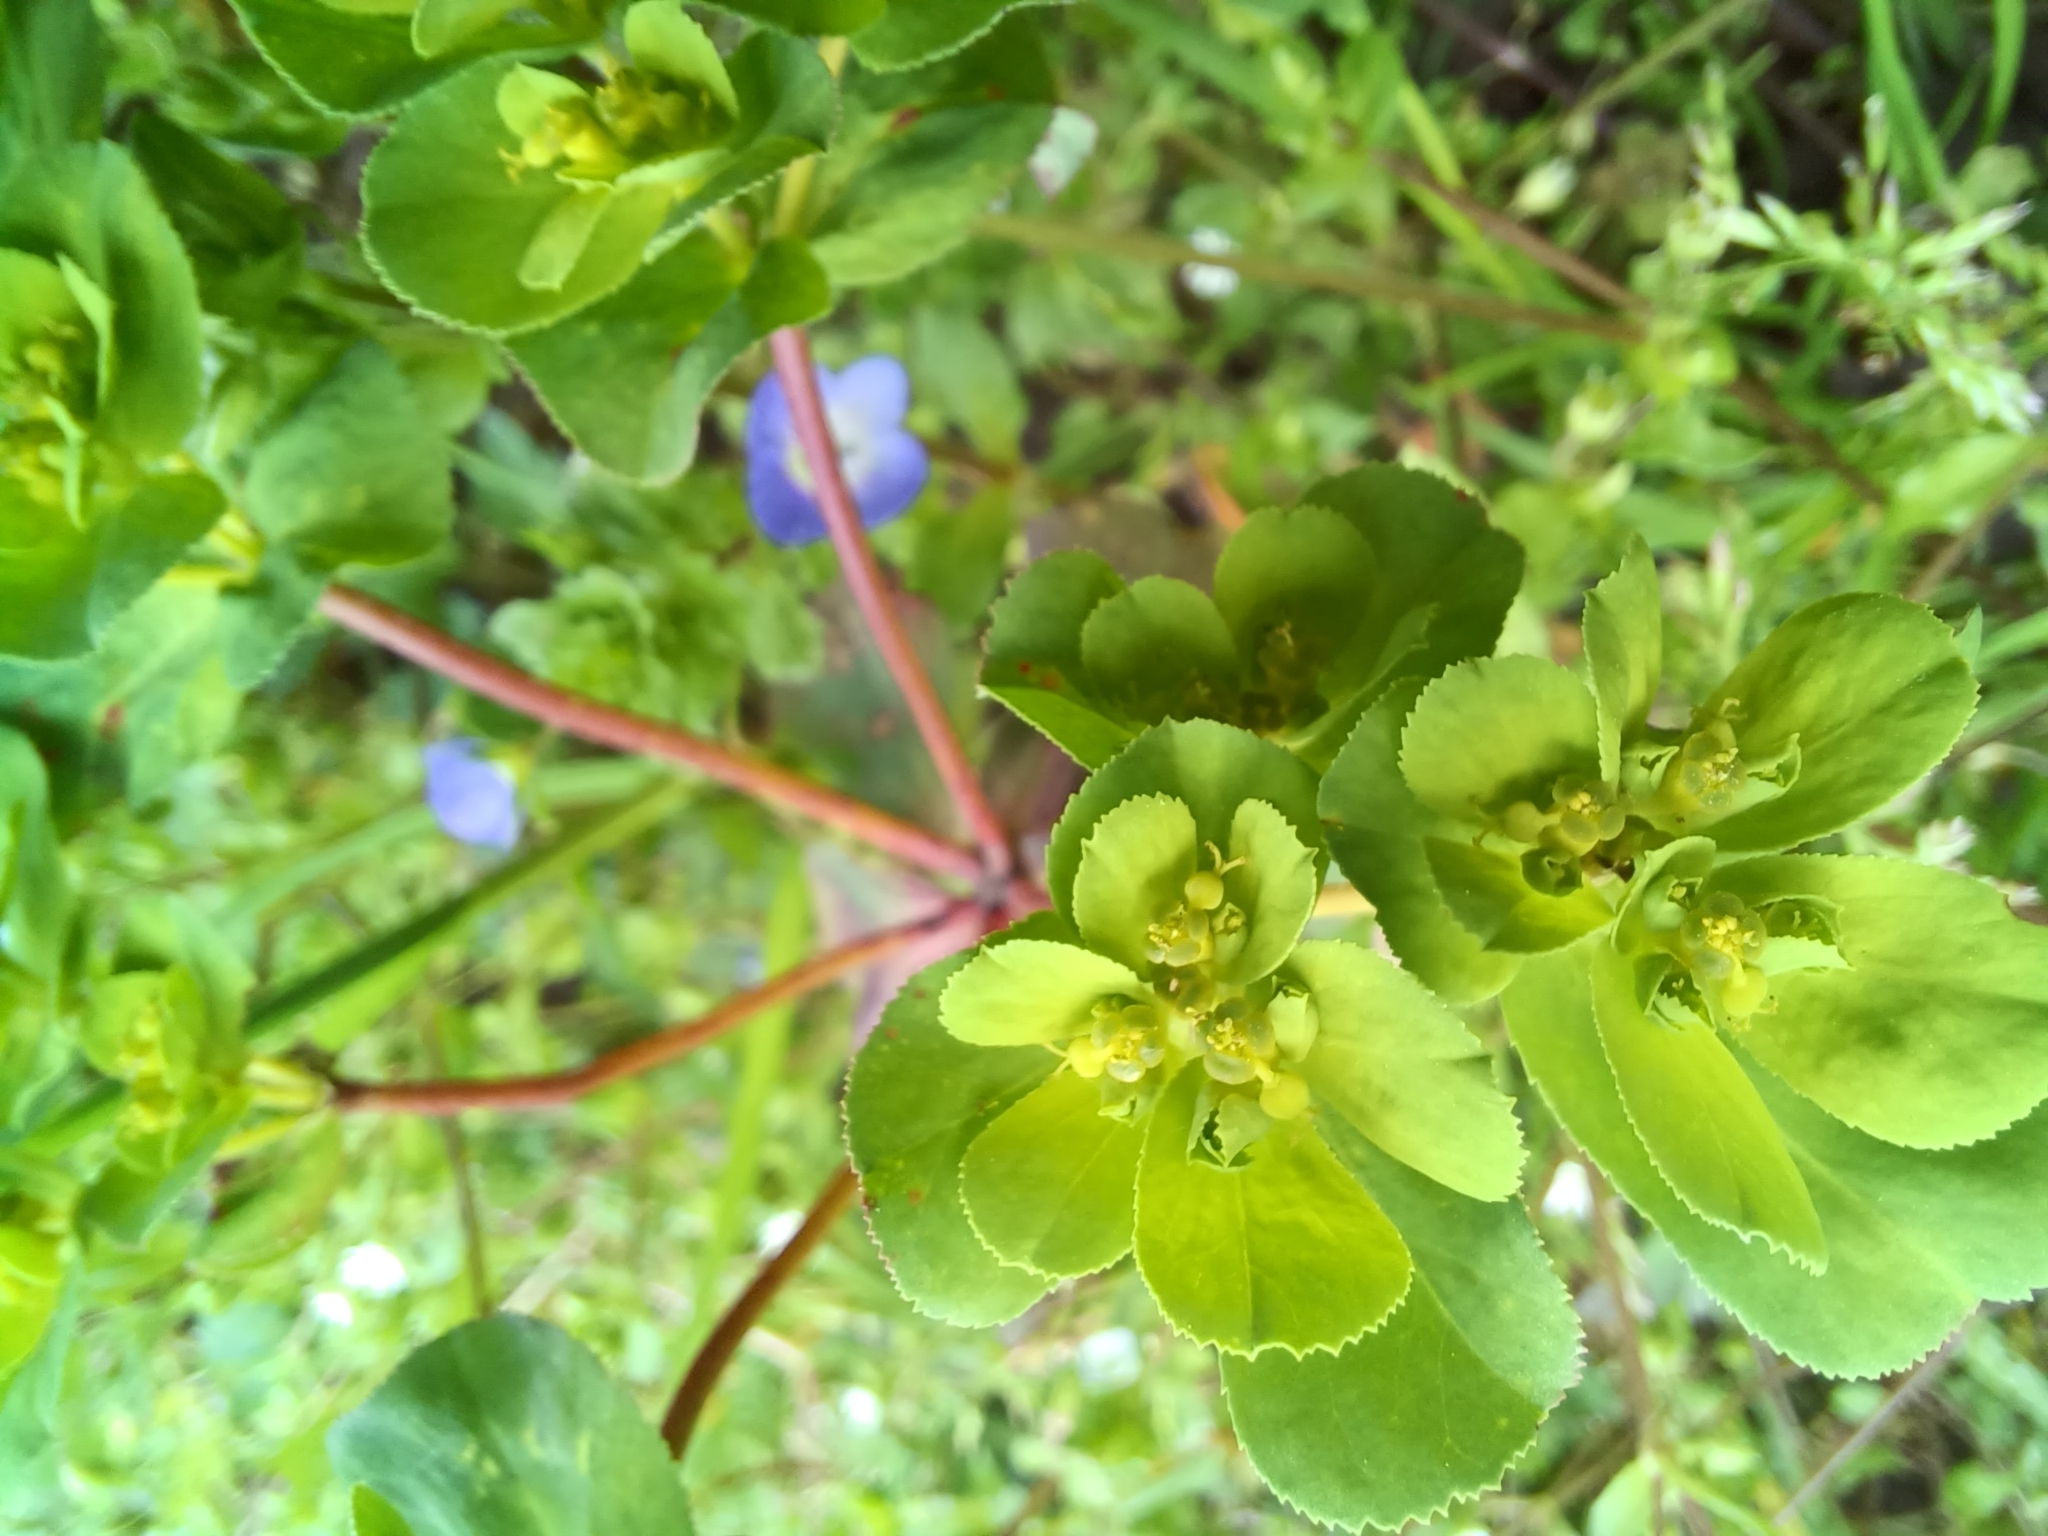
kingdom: Plantae
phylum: Tracheophyta
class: Magnoliopsida
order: Malpighiales
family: Euphorbiaceae
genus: Euphorbia
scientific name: Euphorbia helioscopia
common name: Sun spurge
